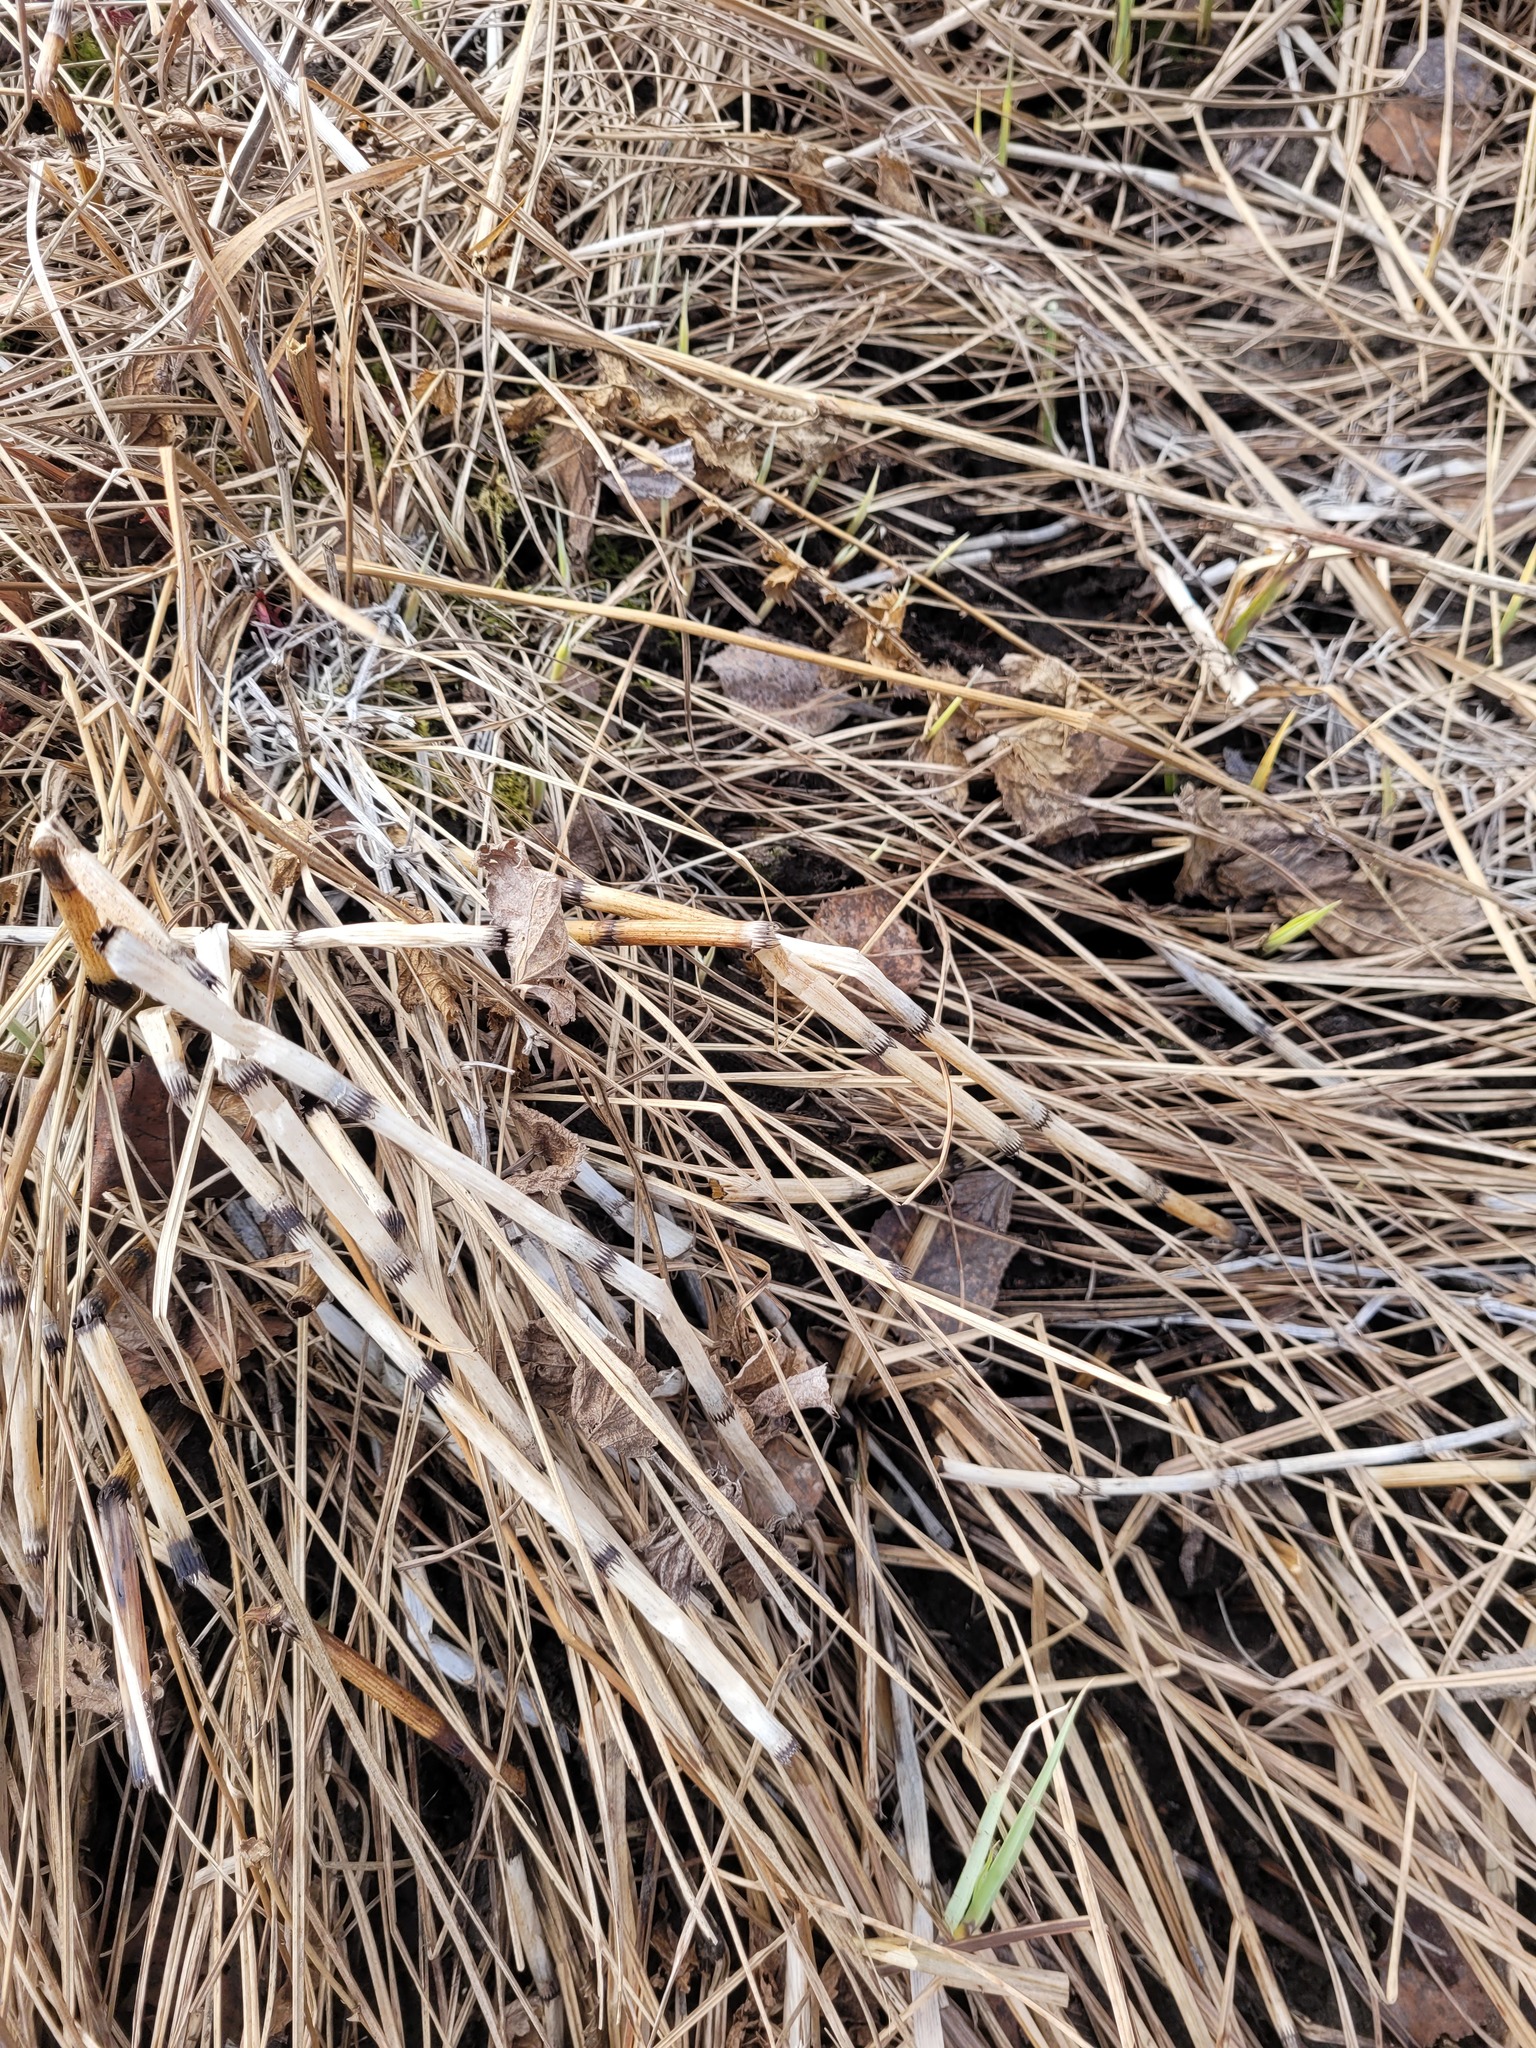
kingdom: Plantae
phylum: Tracheophyta
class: Polypodiopsida
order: Equisetales
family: Equisetaceae
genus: Equisetum
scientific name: Equisetum fluviatile
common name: Water horsetail
